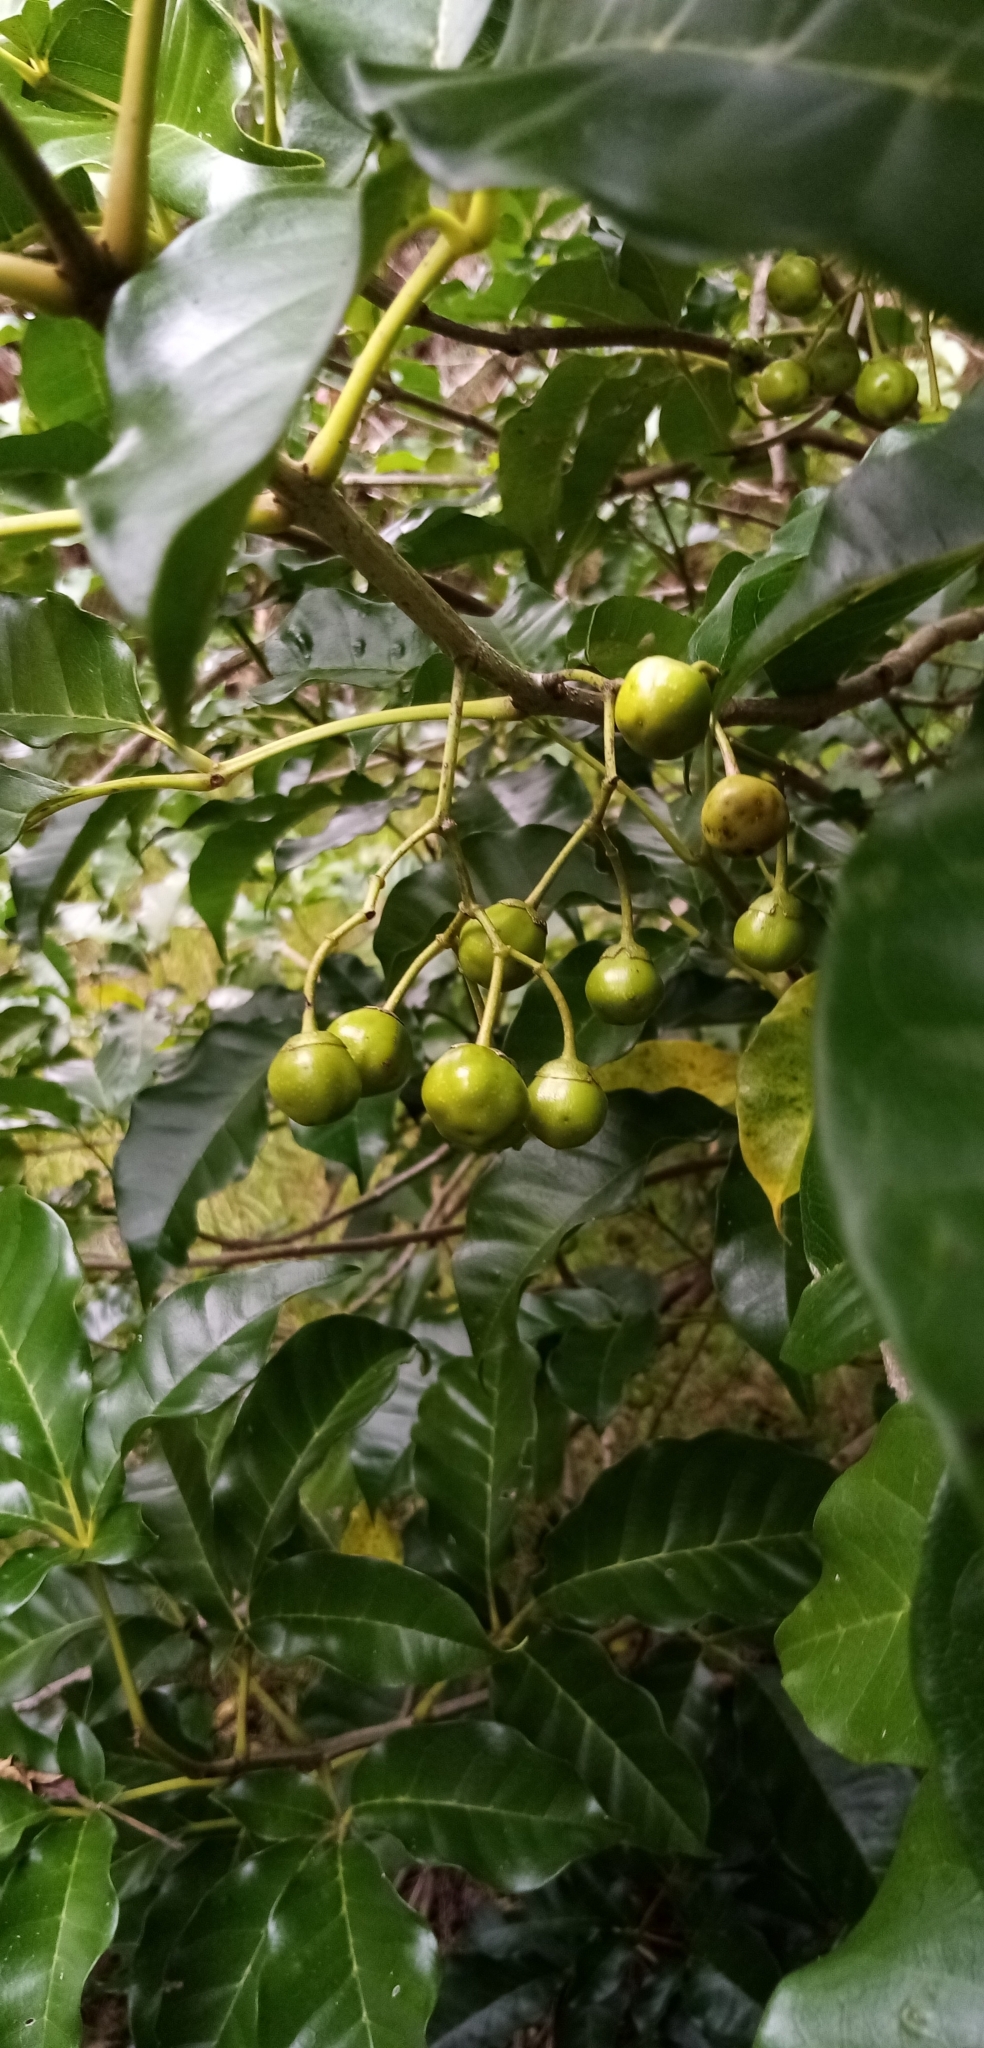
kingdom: Plantae
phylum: Tracheophyta
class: Magnoliopsida
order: Lamiales
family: Lamiaceae
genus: Vitex
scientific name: Vitex lucens
